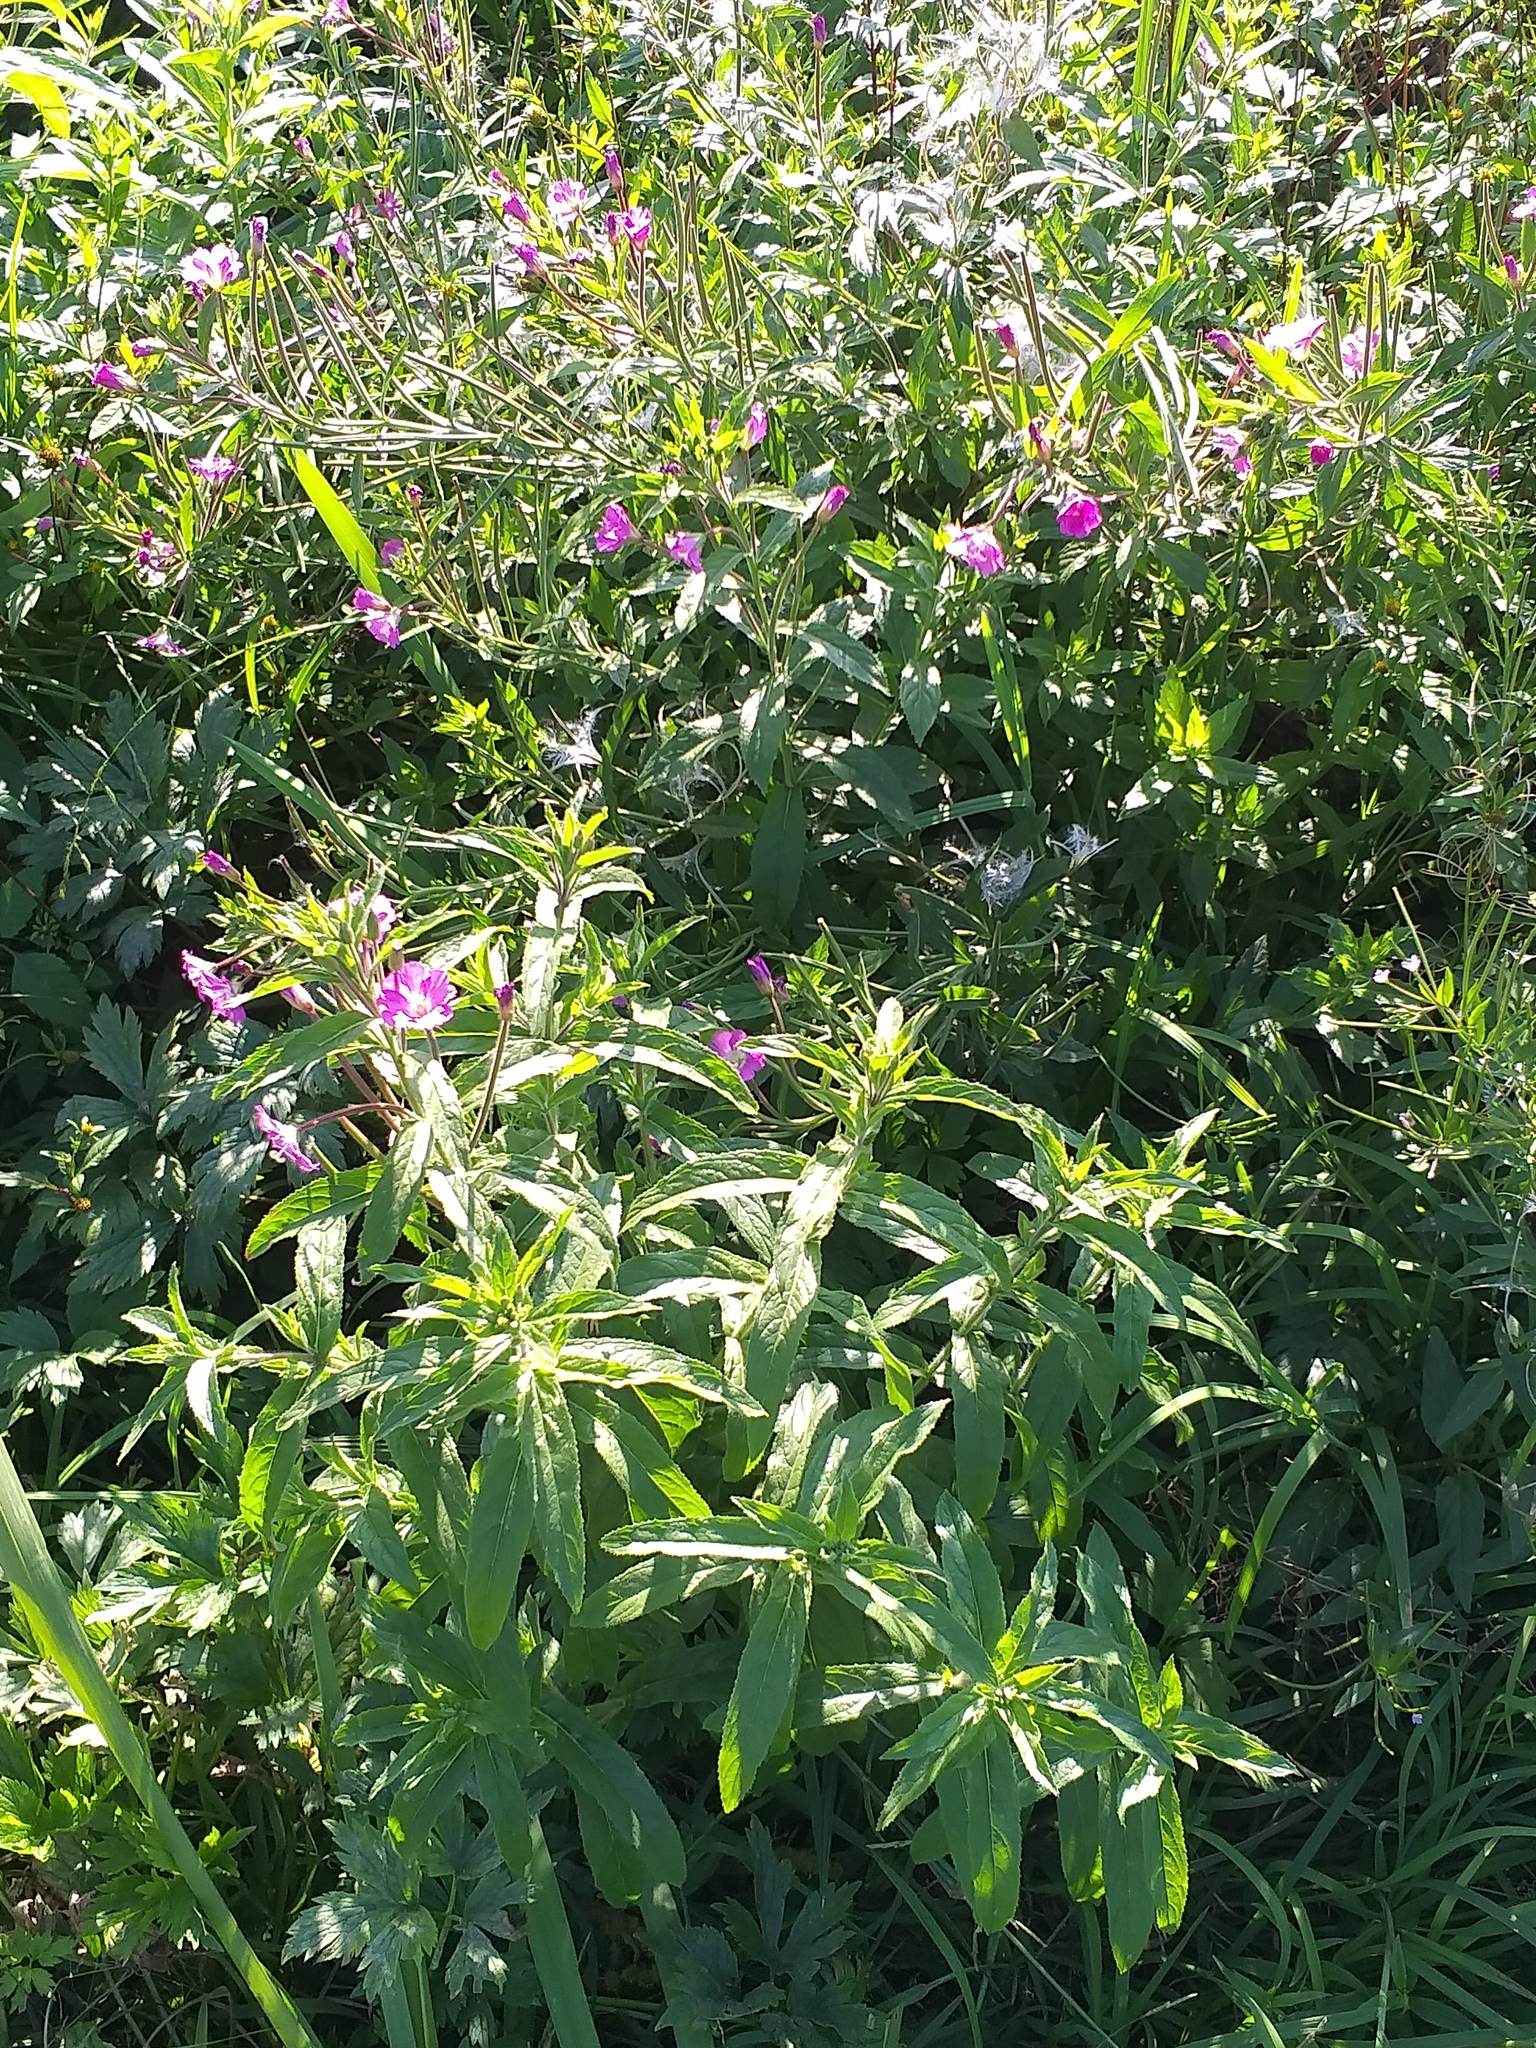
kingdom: Plantae
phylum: Tracheophyta
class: Magnoliopsida
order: Myrtales
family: Onagraceae
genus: Epilobium
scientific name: Epilobium hirsutum
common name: Great willowherb
